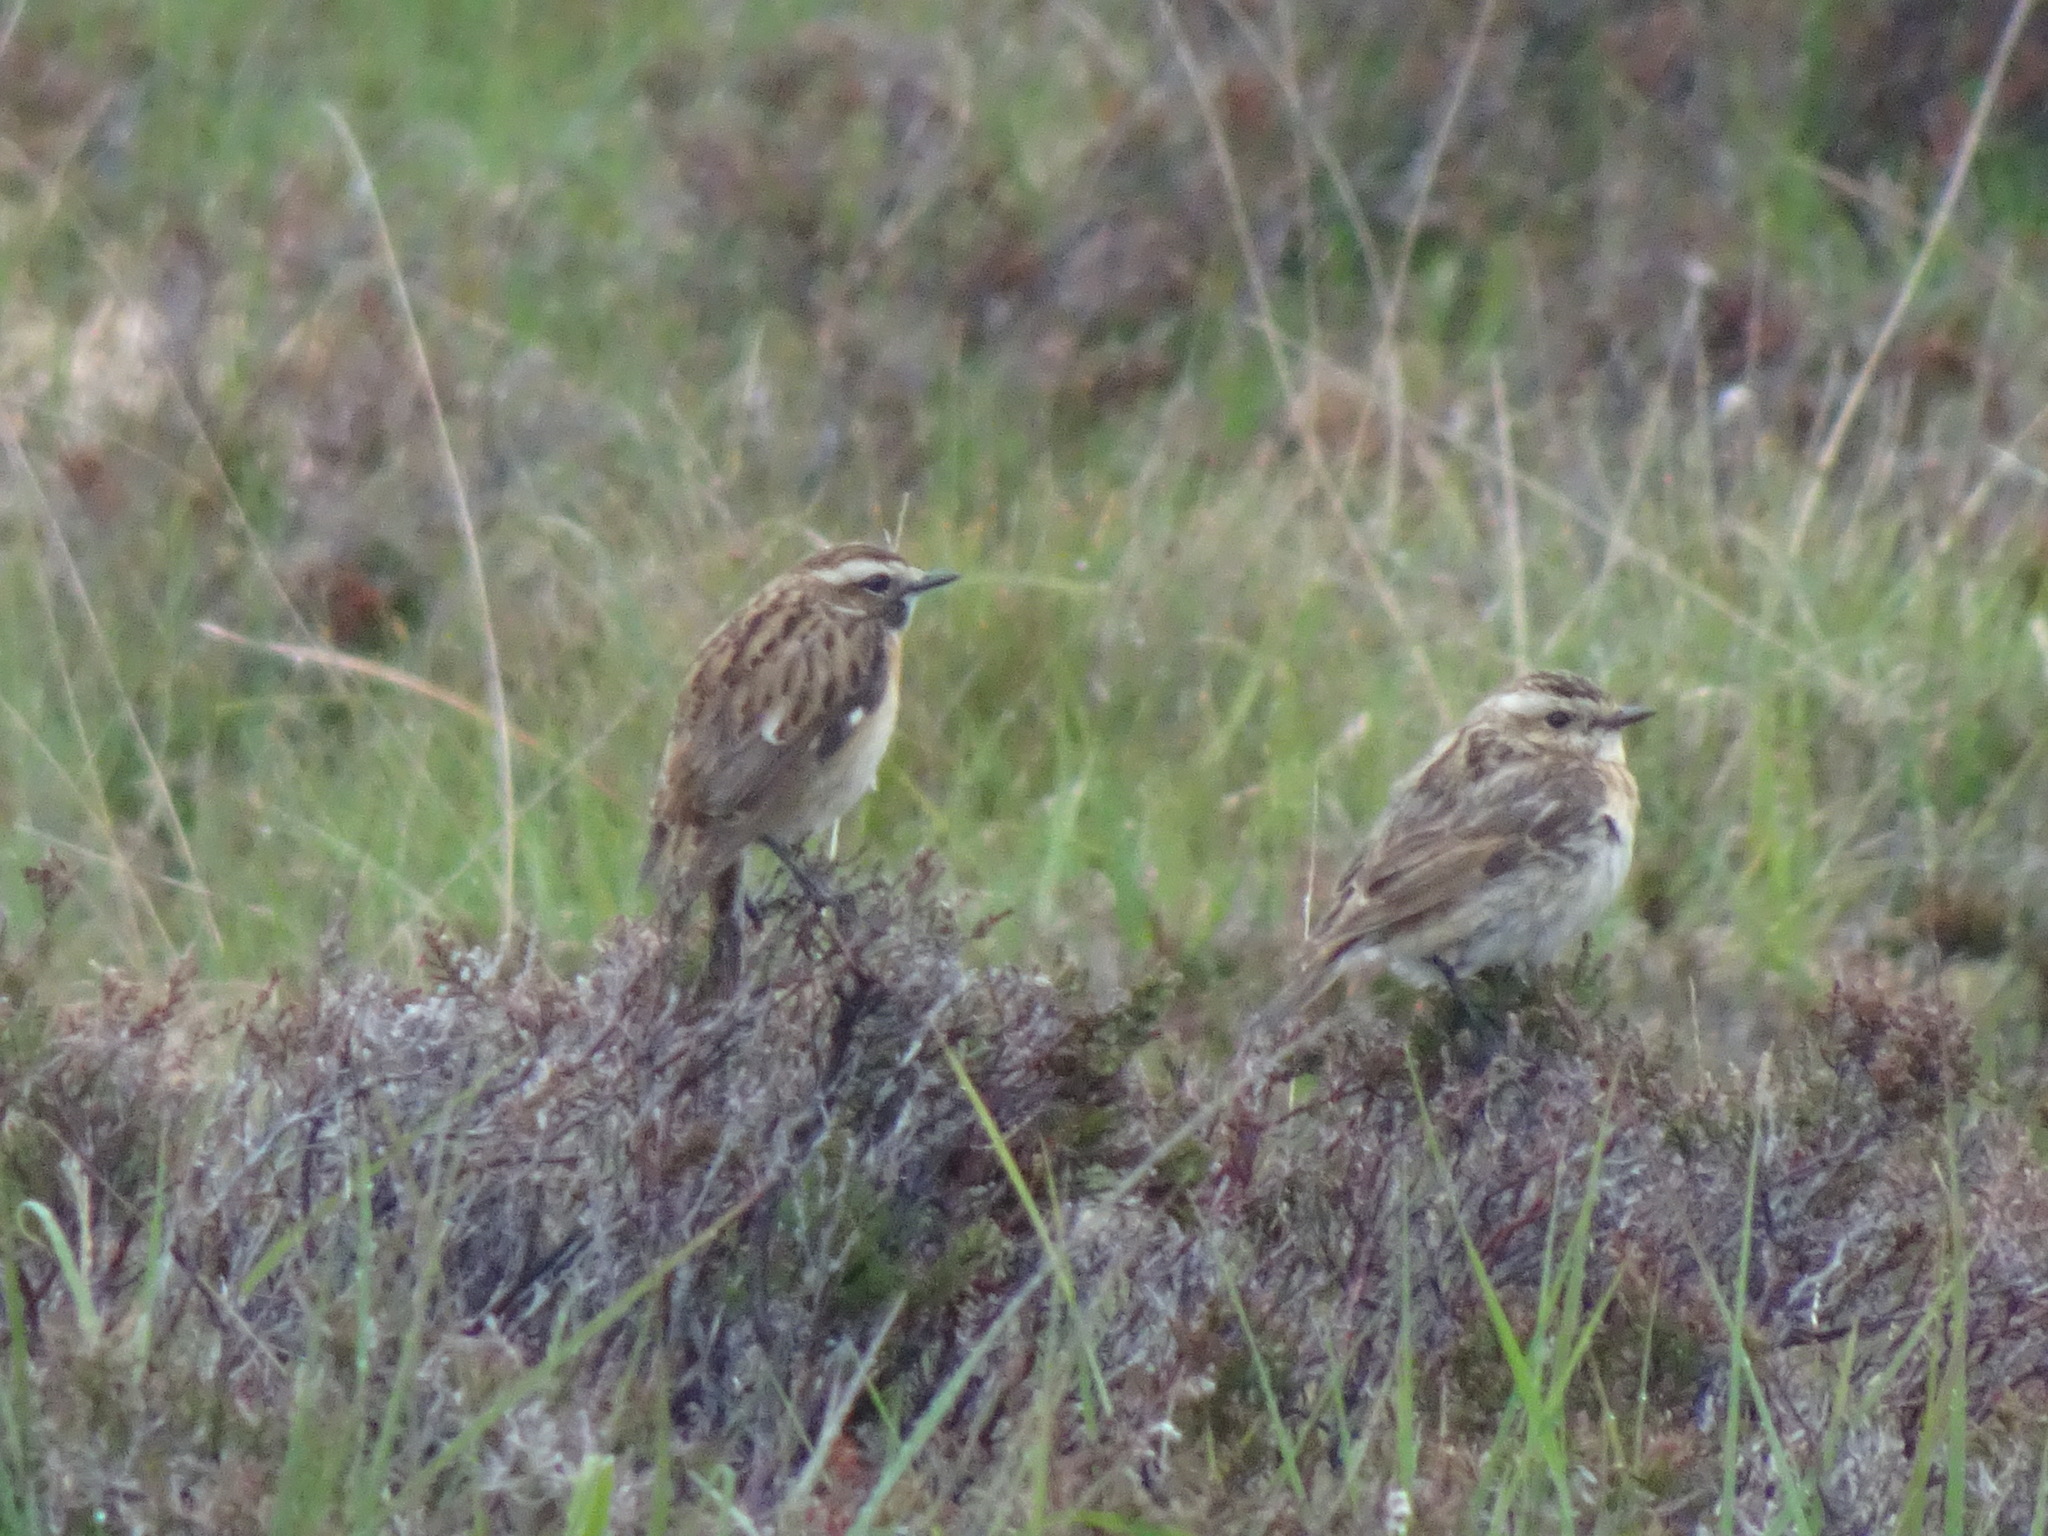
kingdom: Animalia
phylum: Chordata
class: Aves
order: Passeriformes
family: Muscicapidae
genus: Saxicola
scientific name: Saxicola rubetra
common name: Whinchat
